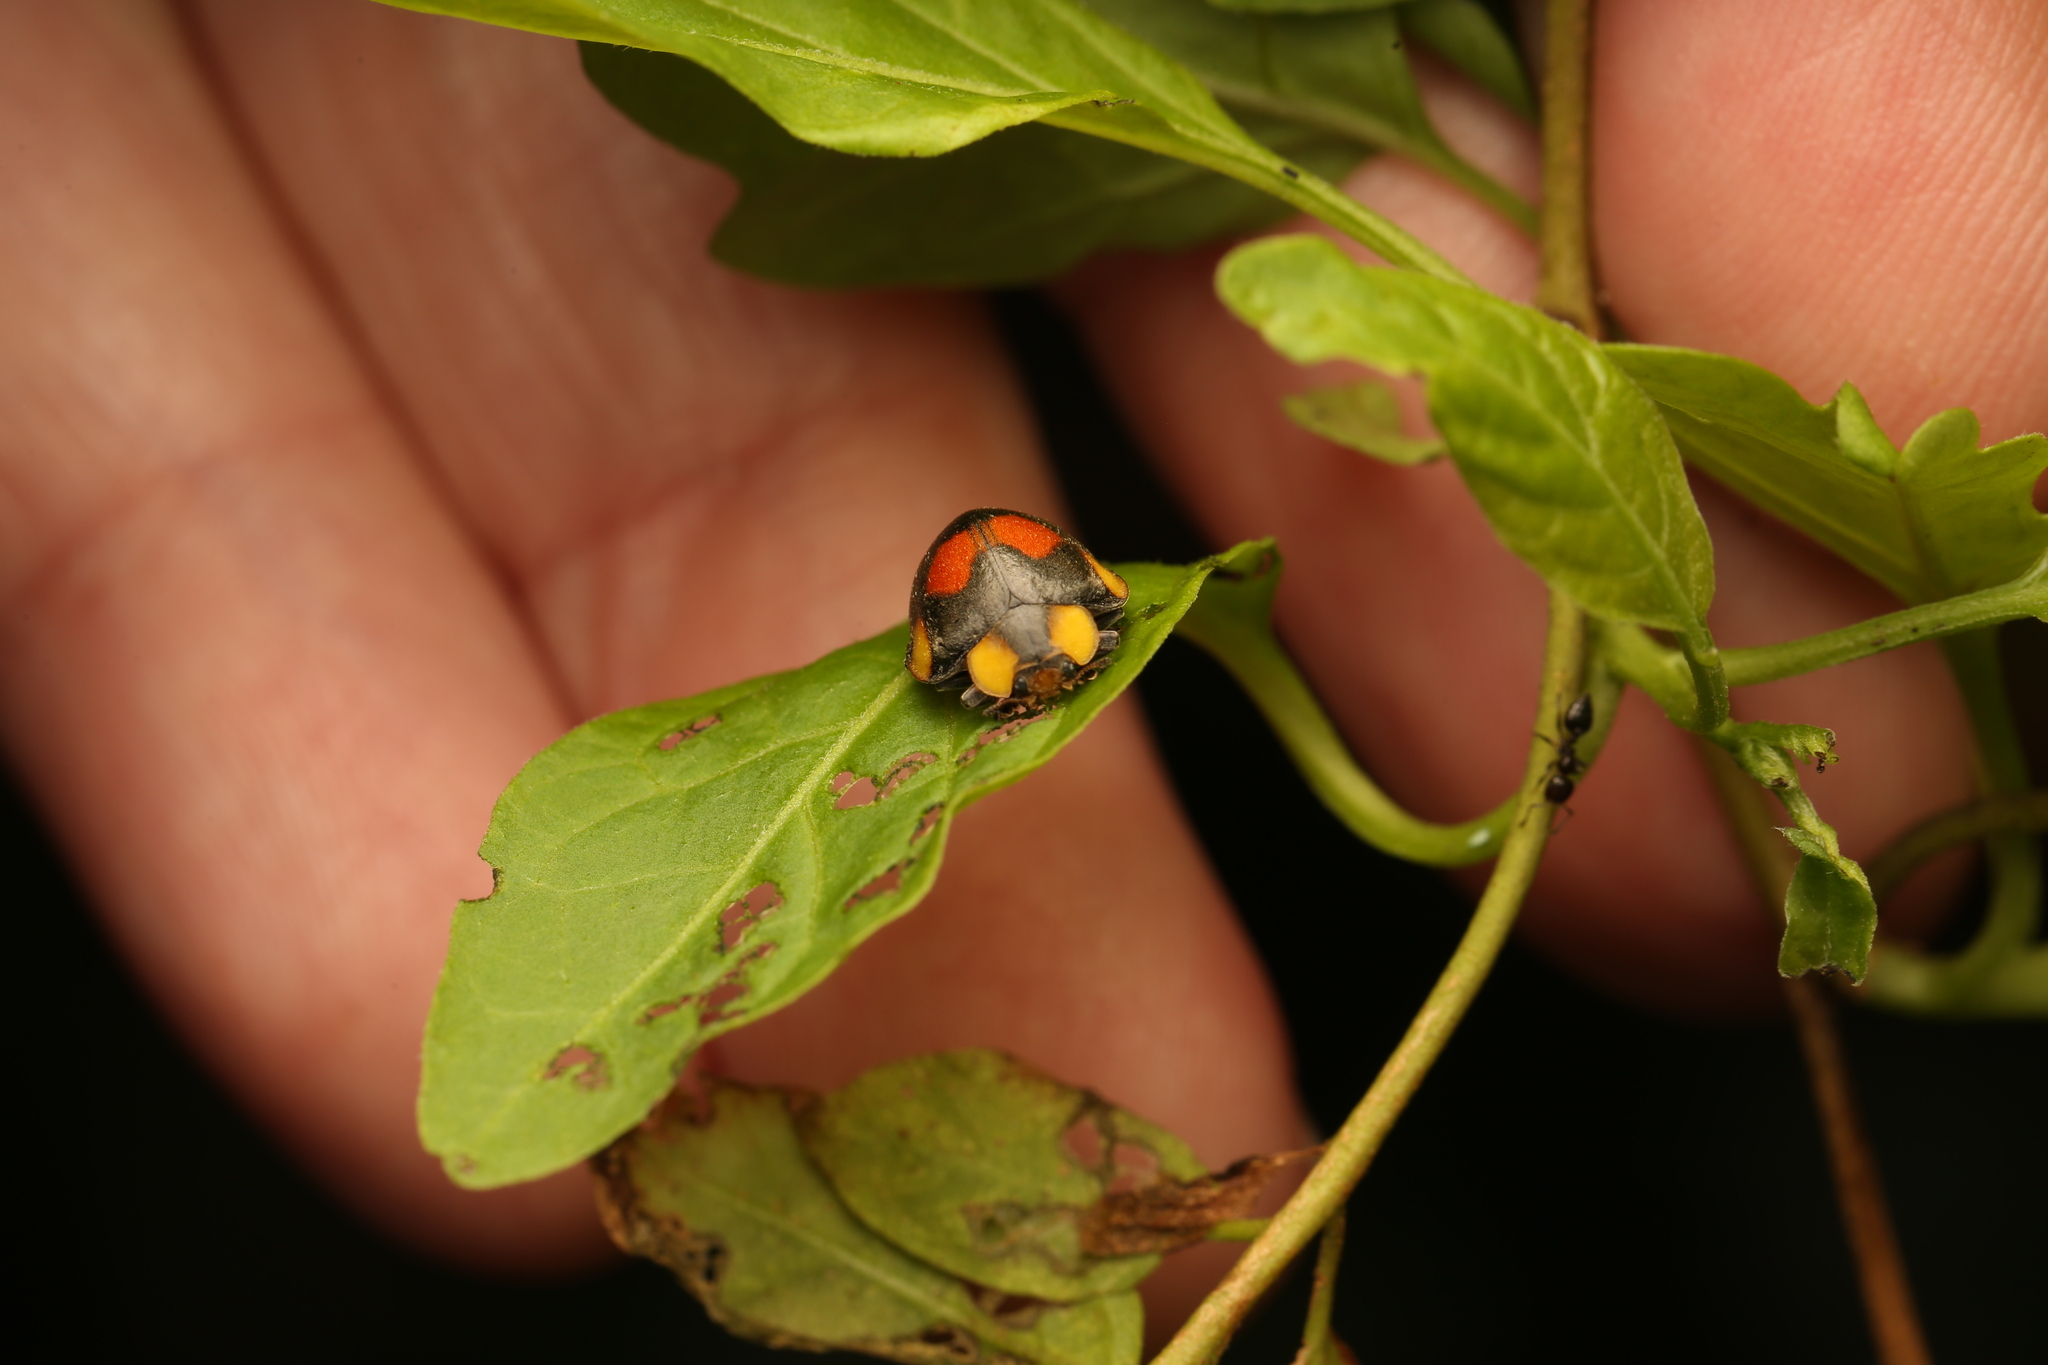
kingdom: Animalia
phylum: Arthropoda
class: Insecta
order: Coleoptera
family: Coccinellidae
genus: Papuaepilachna
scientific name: Papuaepilachna
